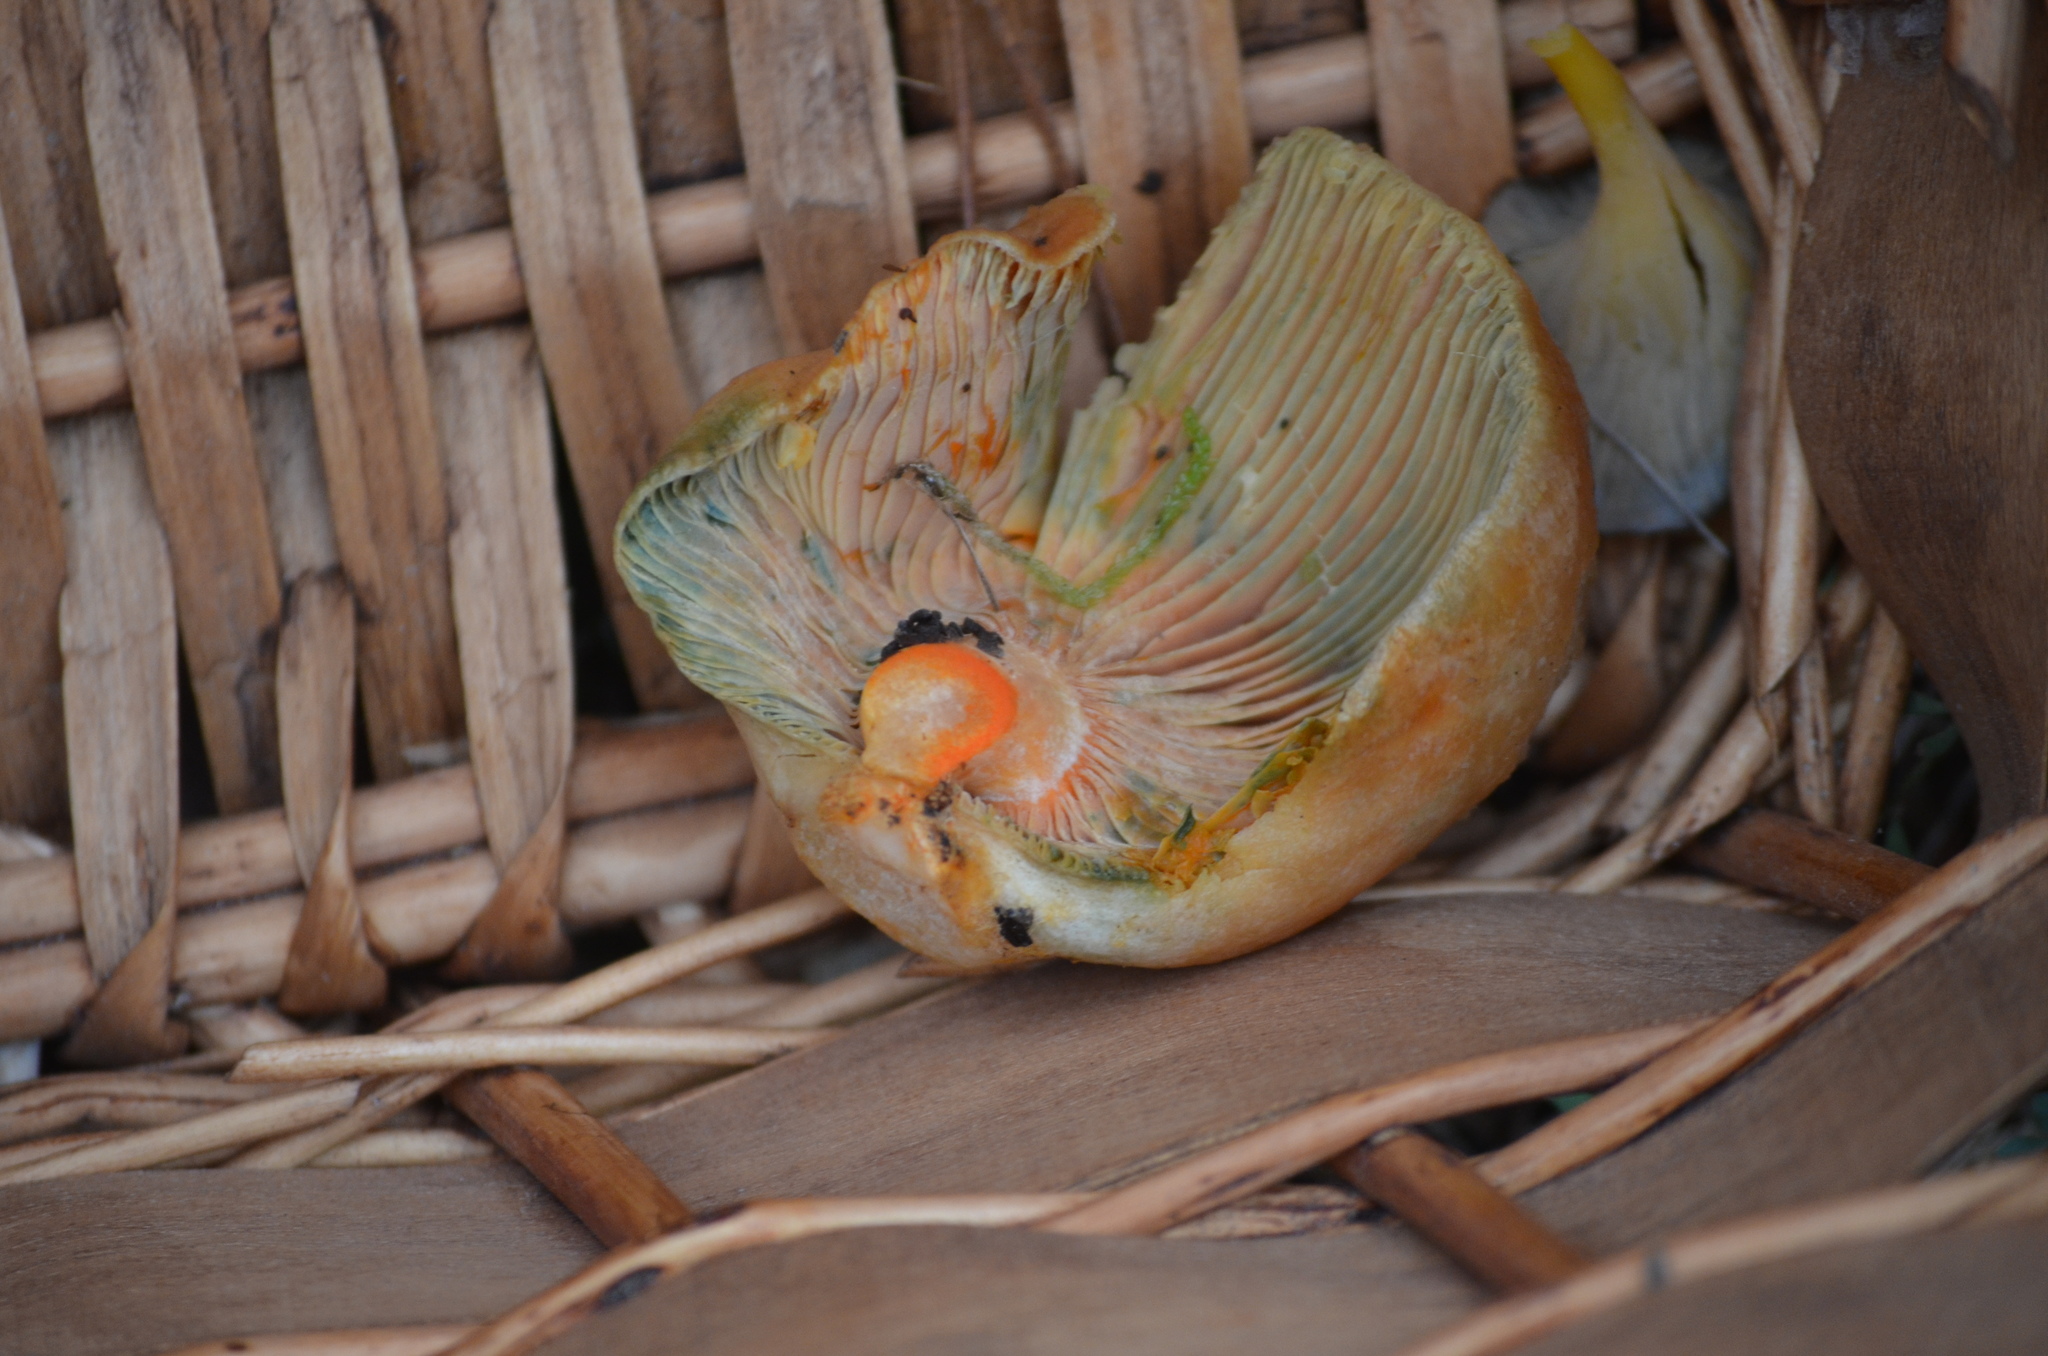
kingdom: Fungi
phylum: Basidiomycota
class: Agaricomycetes
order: Russulales
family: Russulaceae
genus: Lactarius
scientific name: Lactarius deliciosus
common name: Saffron milk-cap
